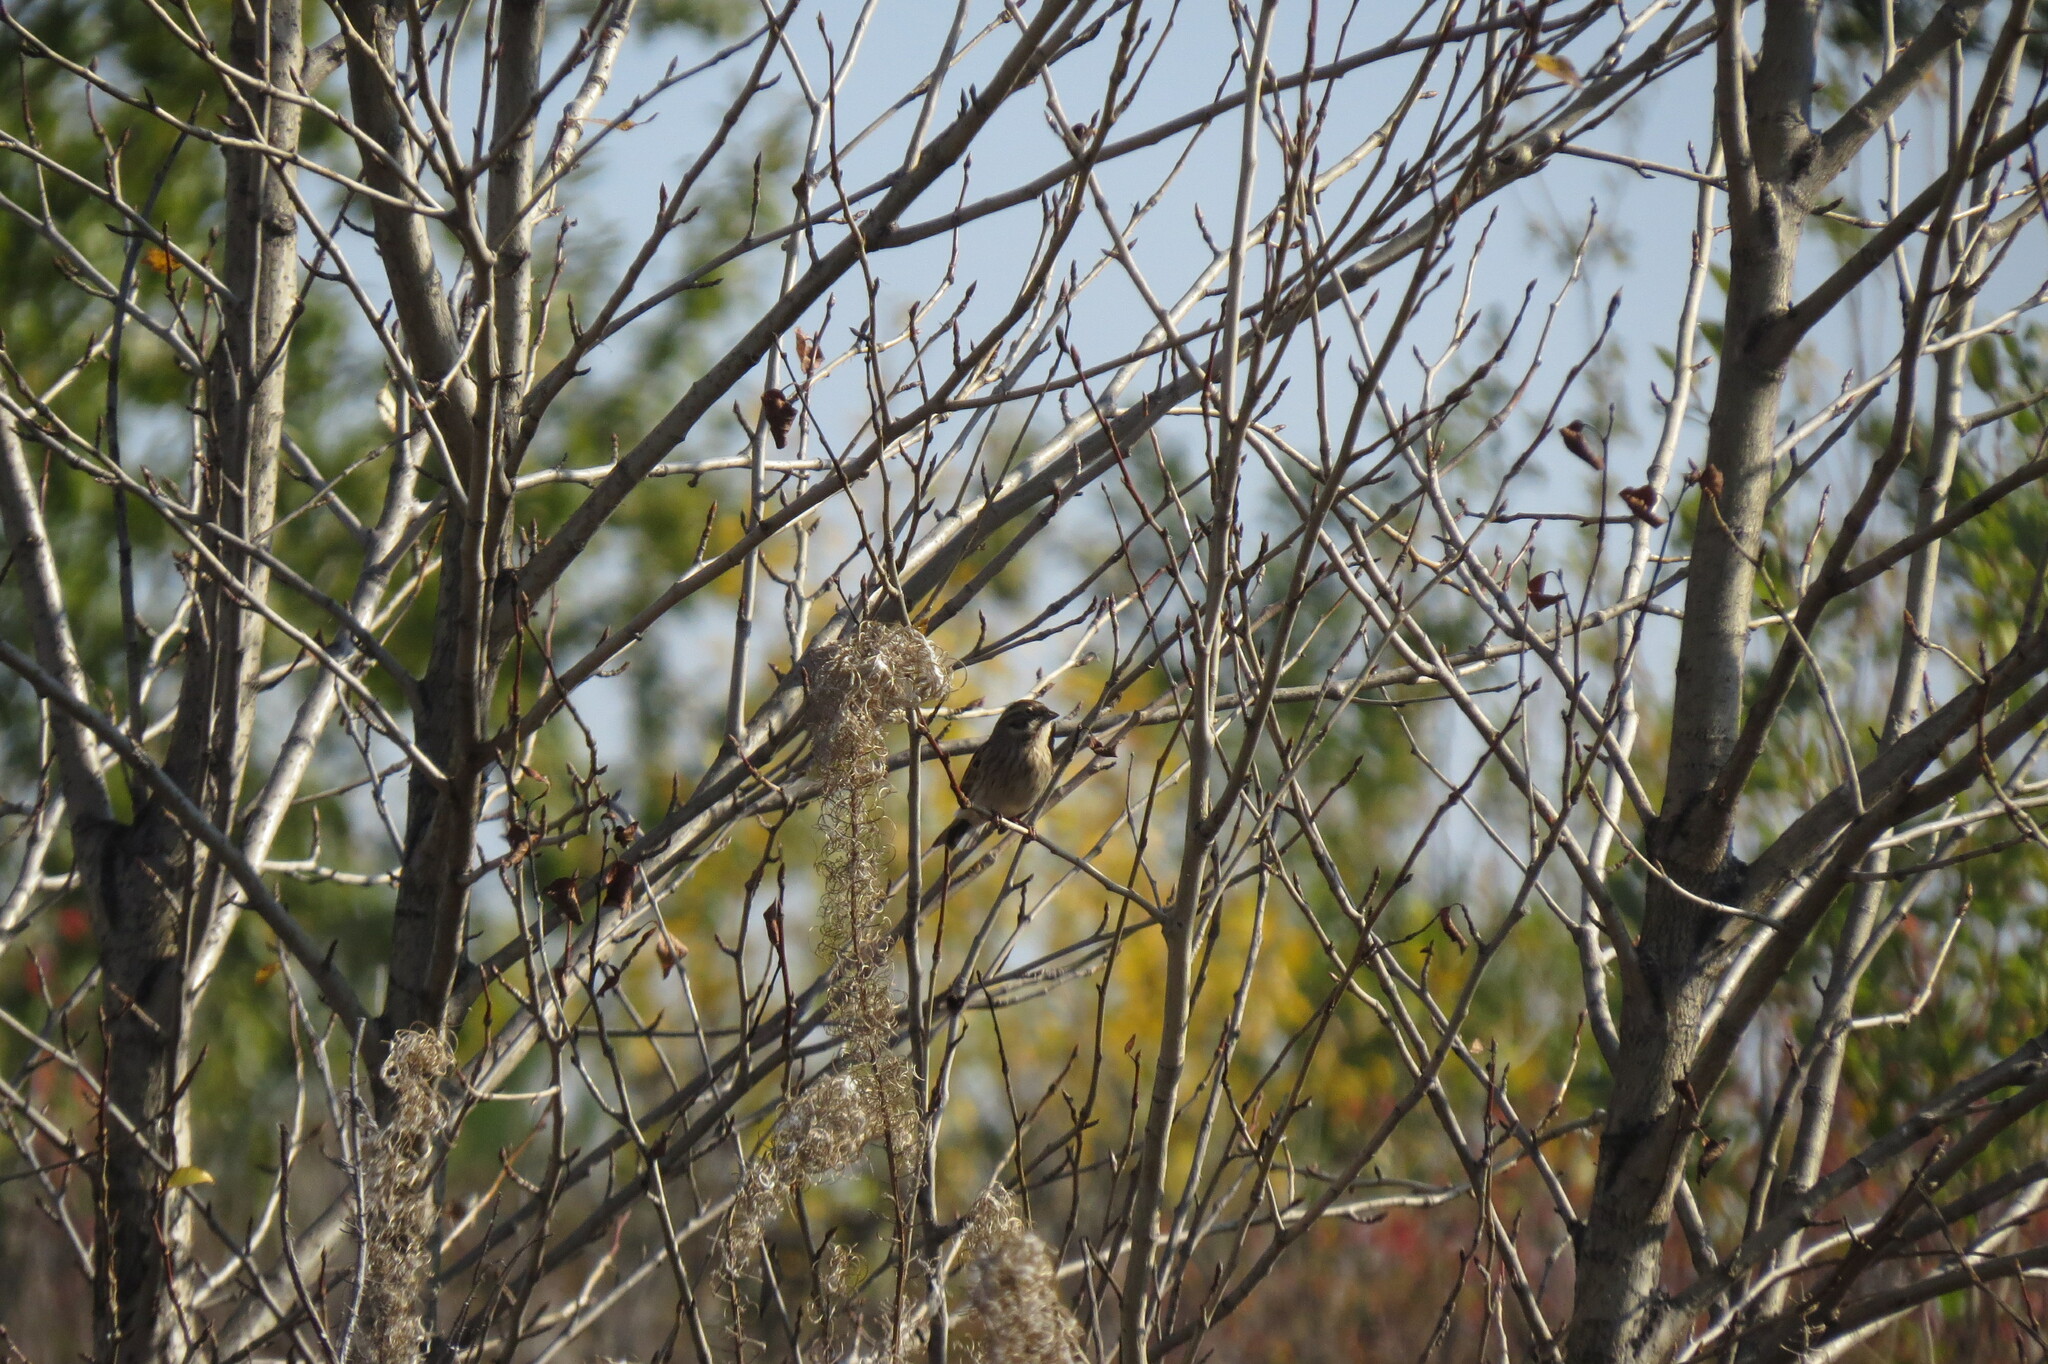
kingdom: Animalia
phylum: Chordata
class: Aves
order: Passeriformes
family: Emberizidae
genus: Emberiza
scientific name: Emberiza schoeniclus
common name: Reed bunting
